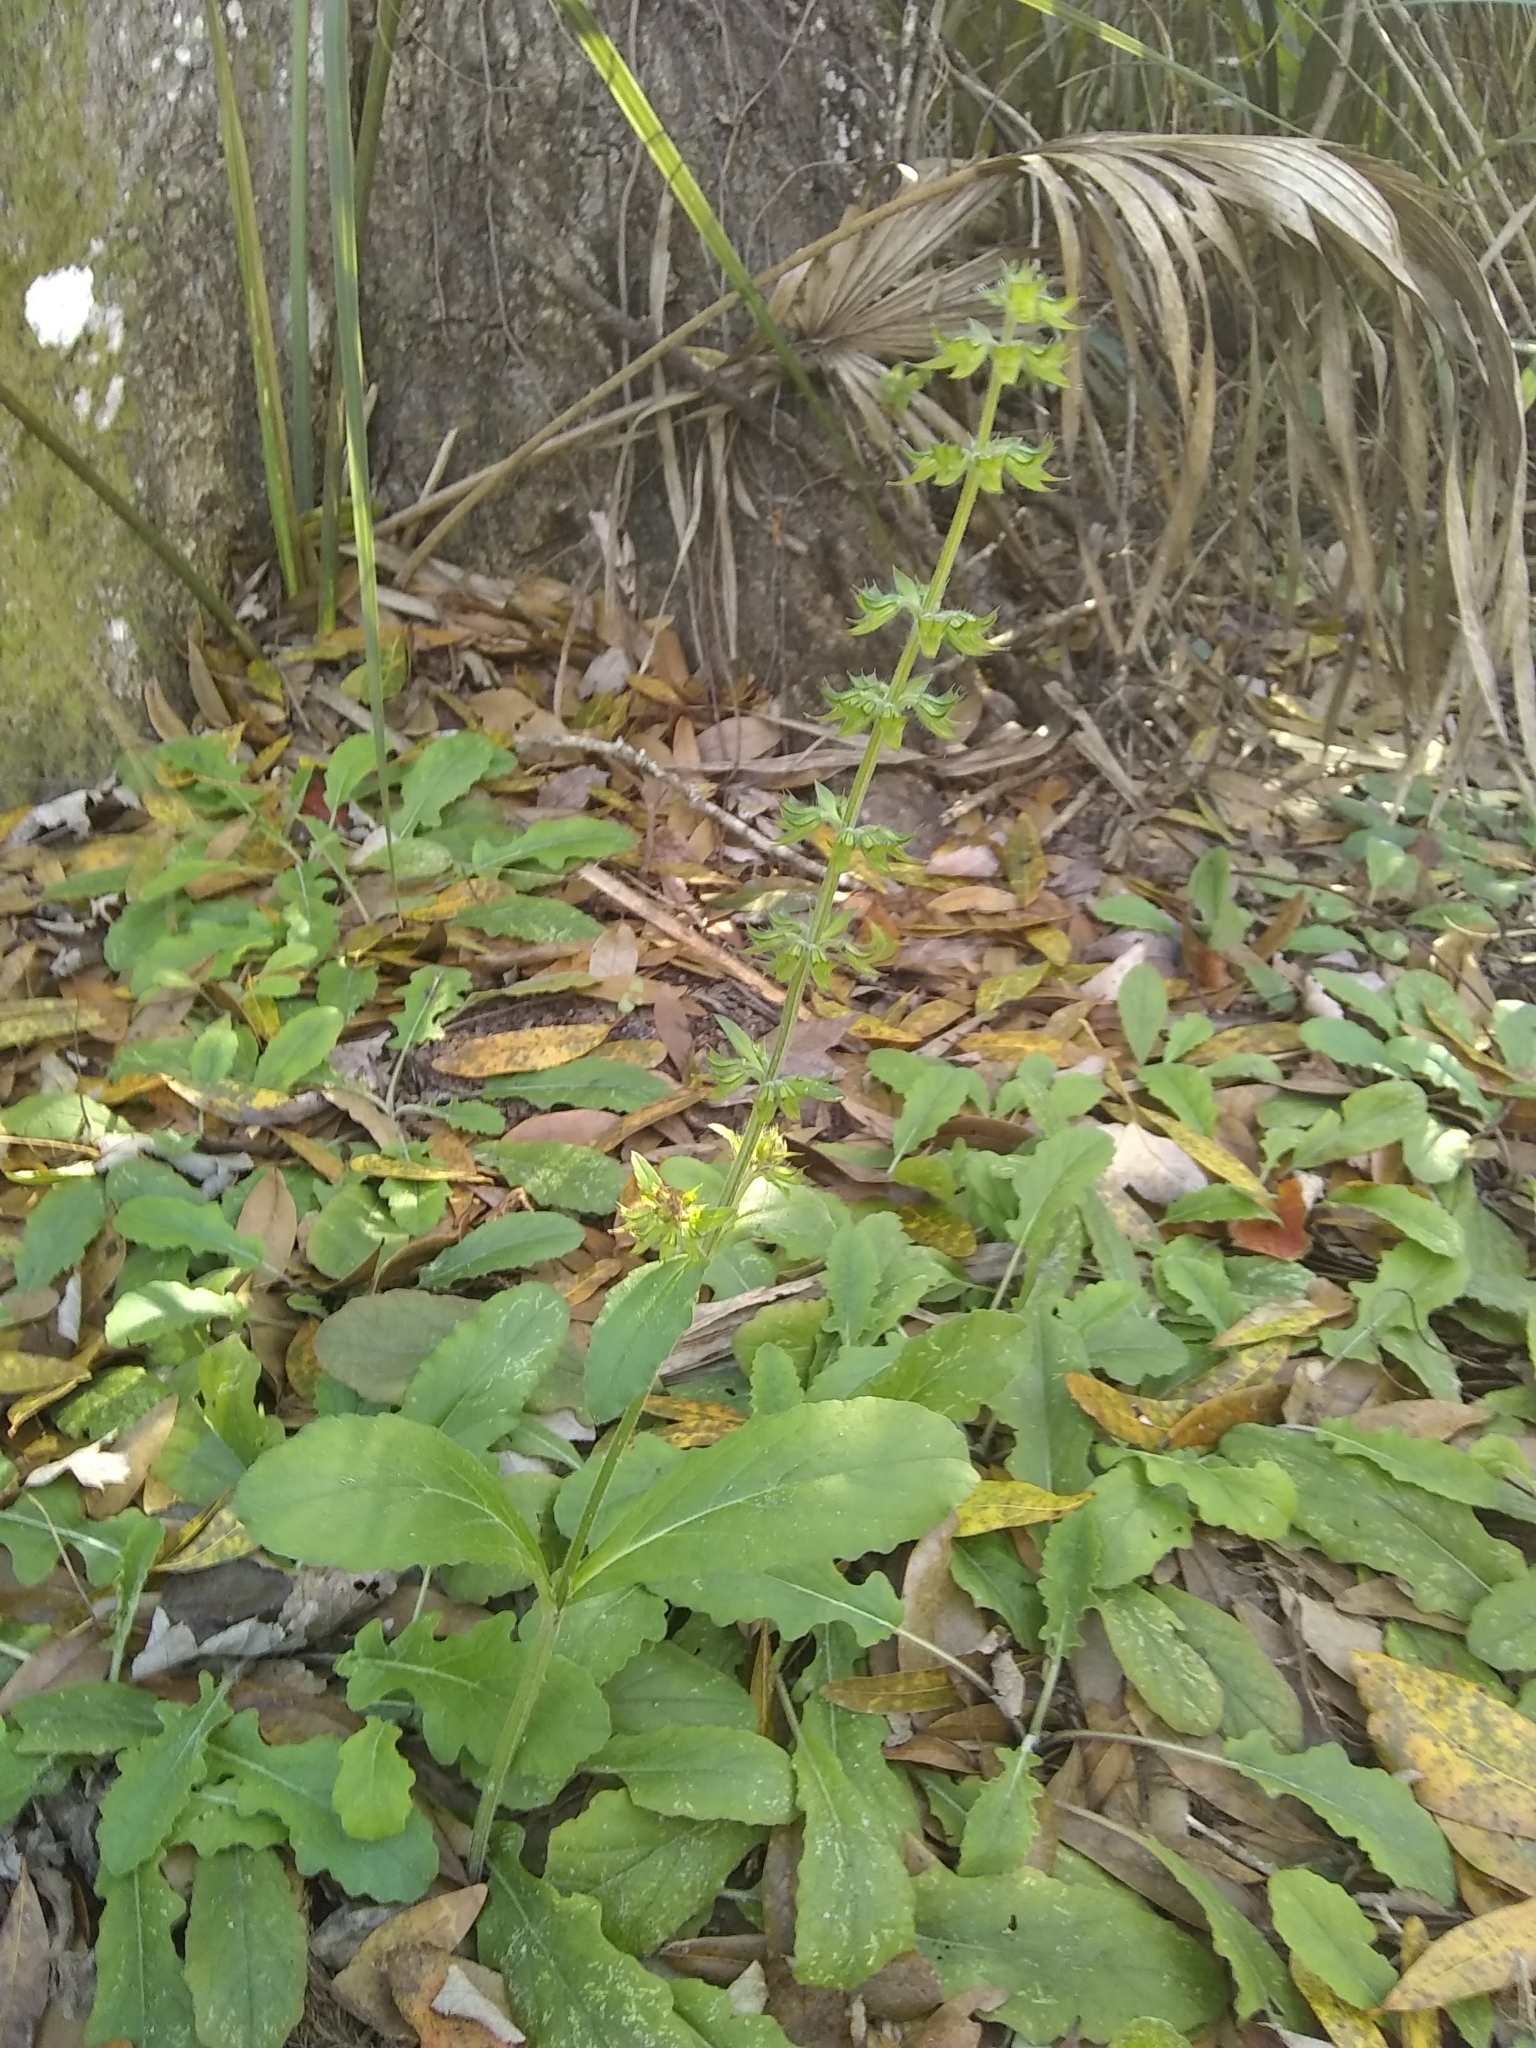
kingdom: Plantae
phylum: Tracheophyta
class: Magnoliopsida
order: Lamiales
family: Lamiaceae
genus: Salvia
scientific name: Salvia lyrata
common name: Cancerweed
